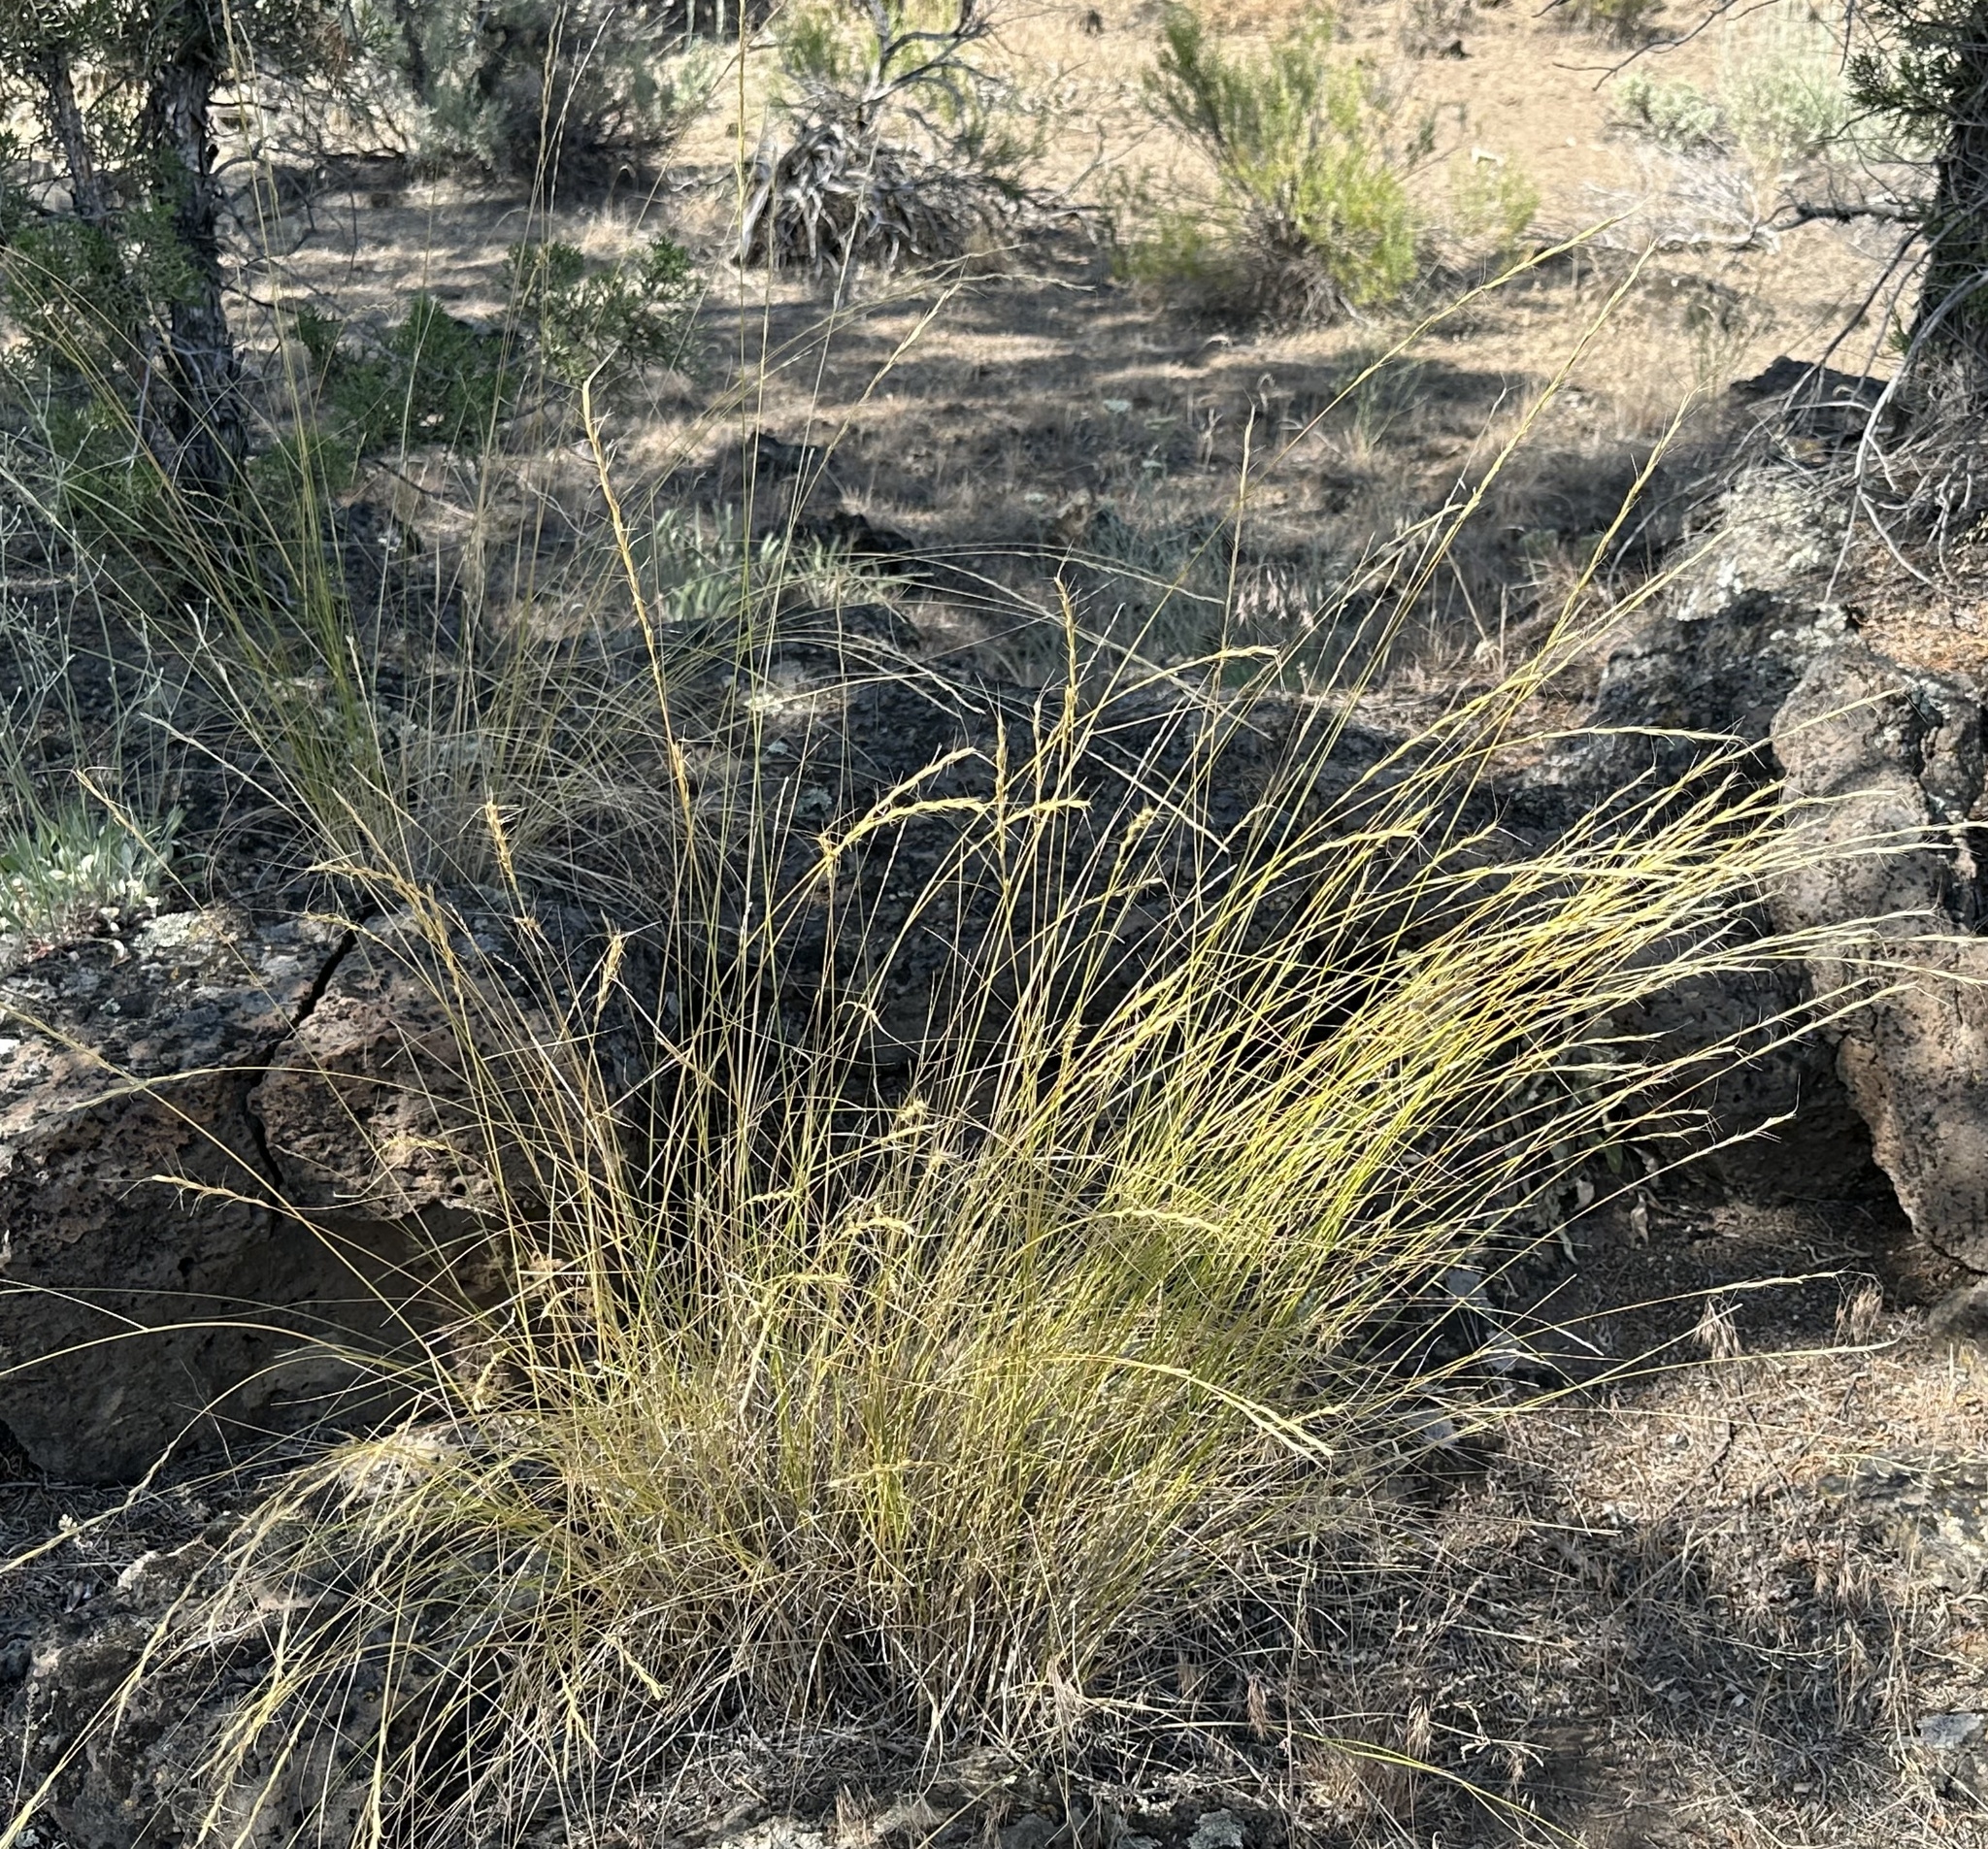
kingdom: Plantae
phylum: Tracheophyta
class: Liliopsida
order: Poales
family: Poaceae
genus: Pseudoroegneria
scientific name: Pseudoroegneria spicata
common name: Bluebunch wheatgrass
